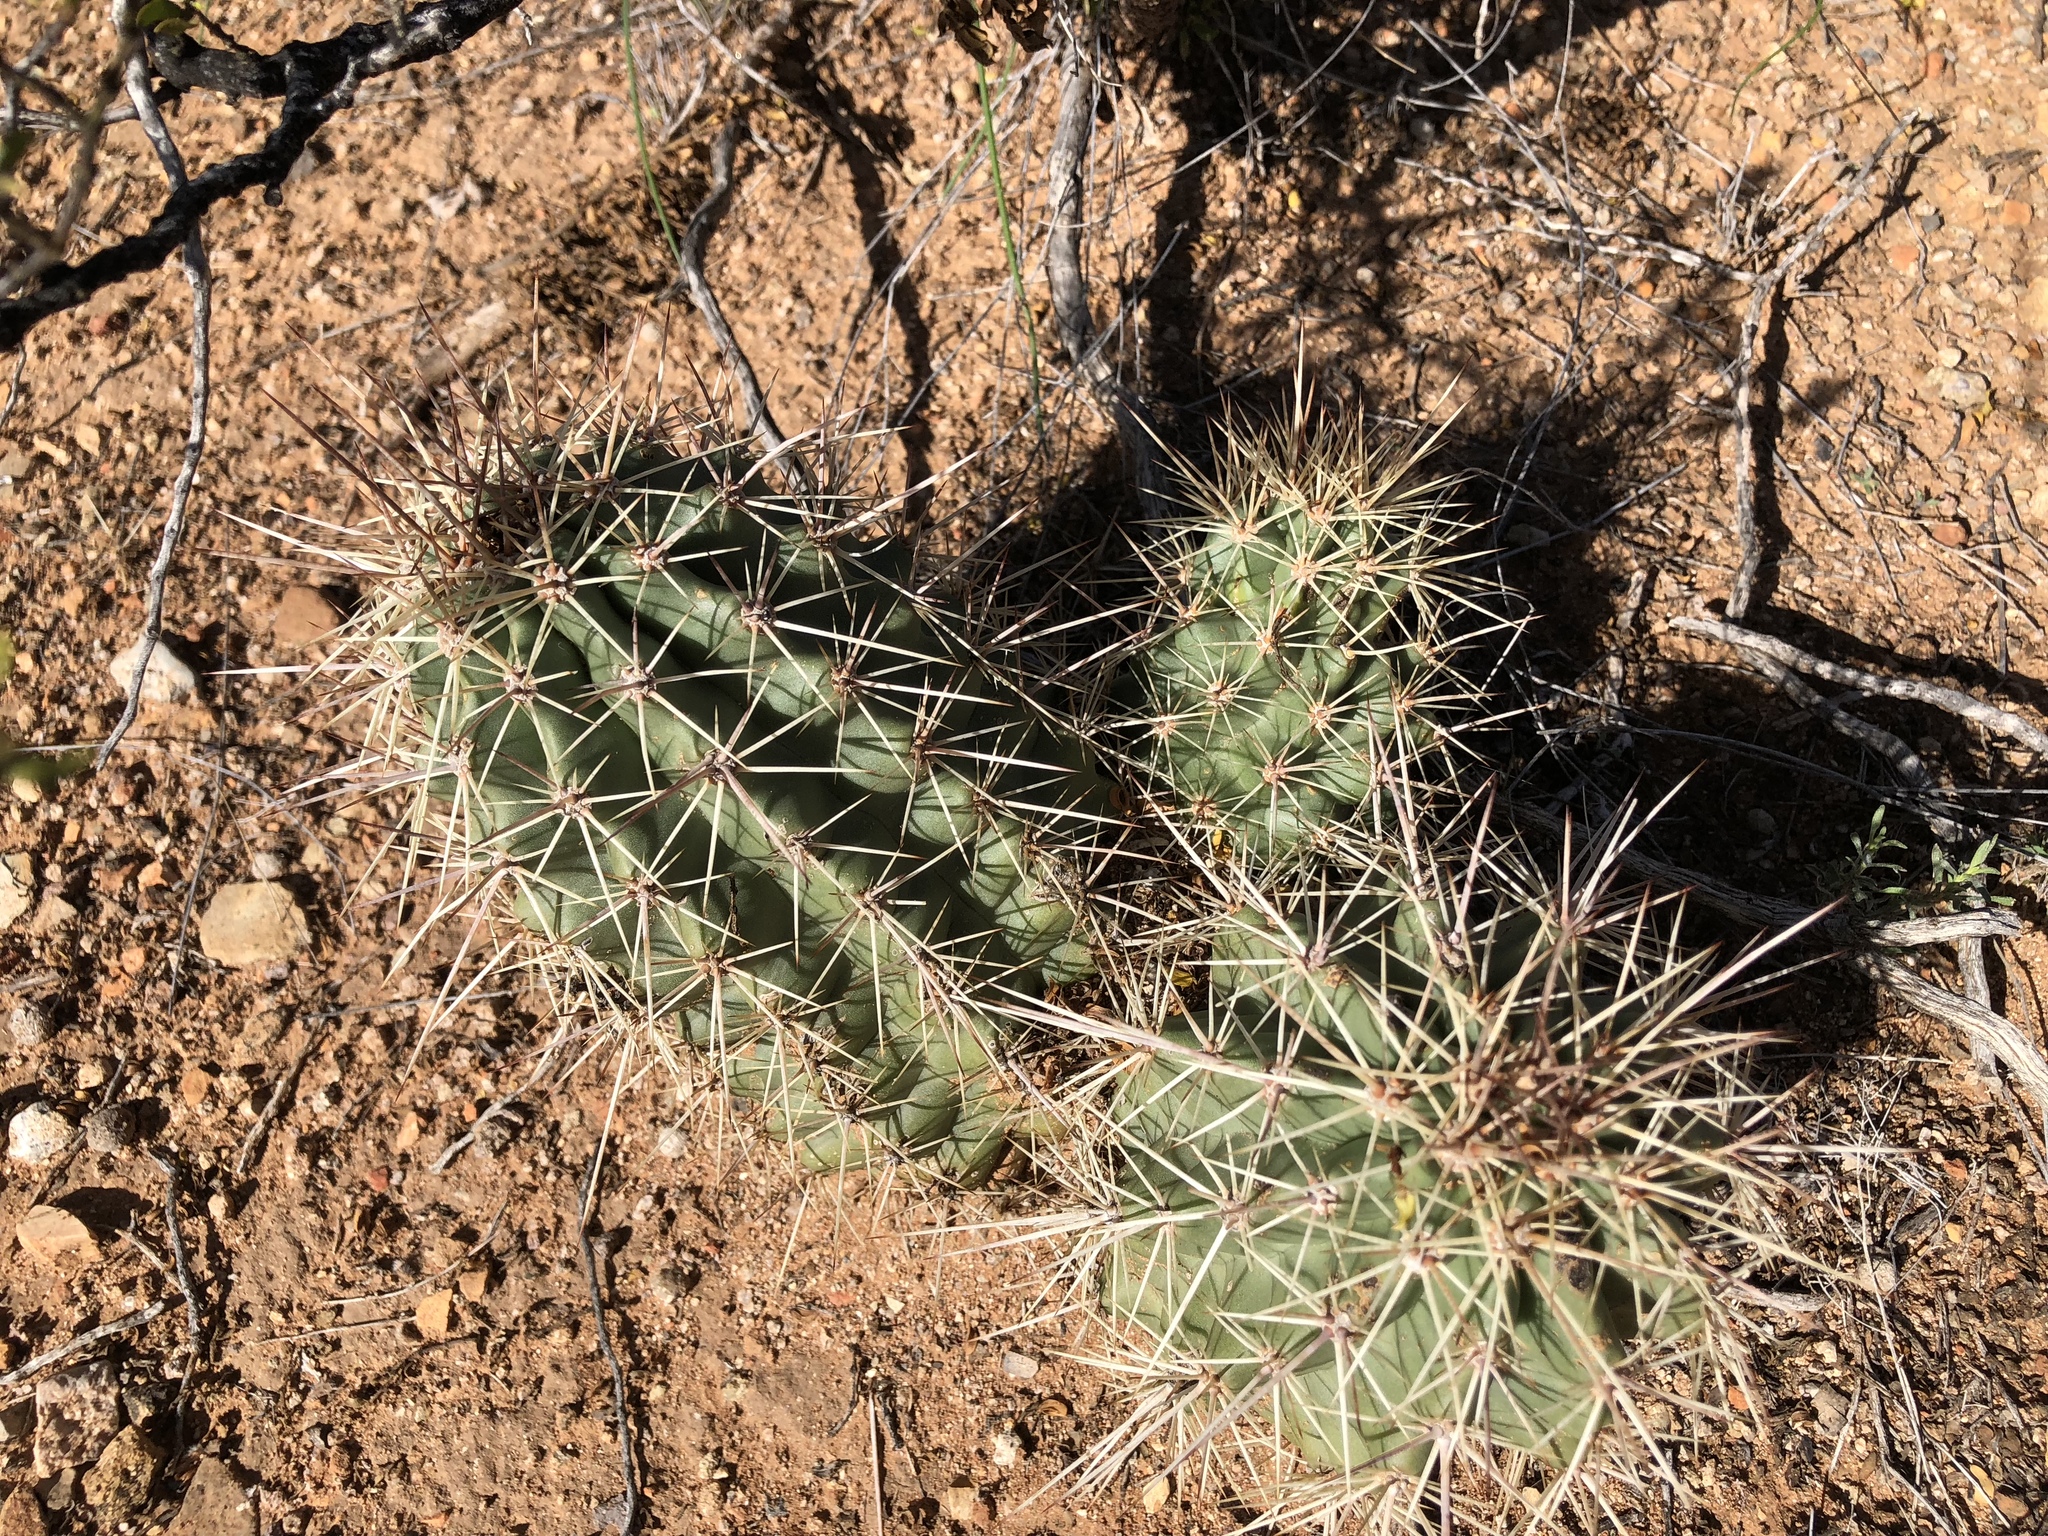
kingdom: Plantae
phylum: Tracheophyta
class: Magnoliopsida
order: Caryophyllales
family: Cactaceae
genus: Echinocereus
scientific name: Echinocereus coccineus
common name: Scarlet hedgehog cactus
